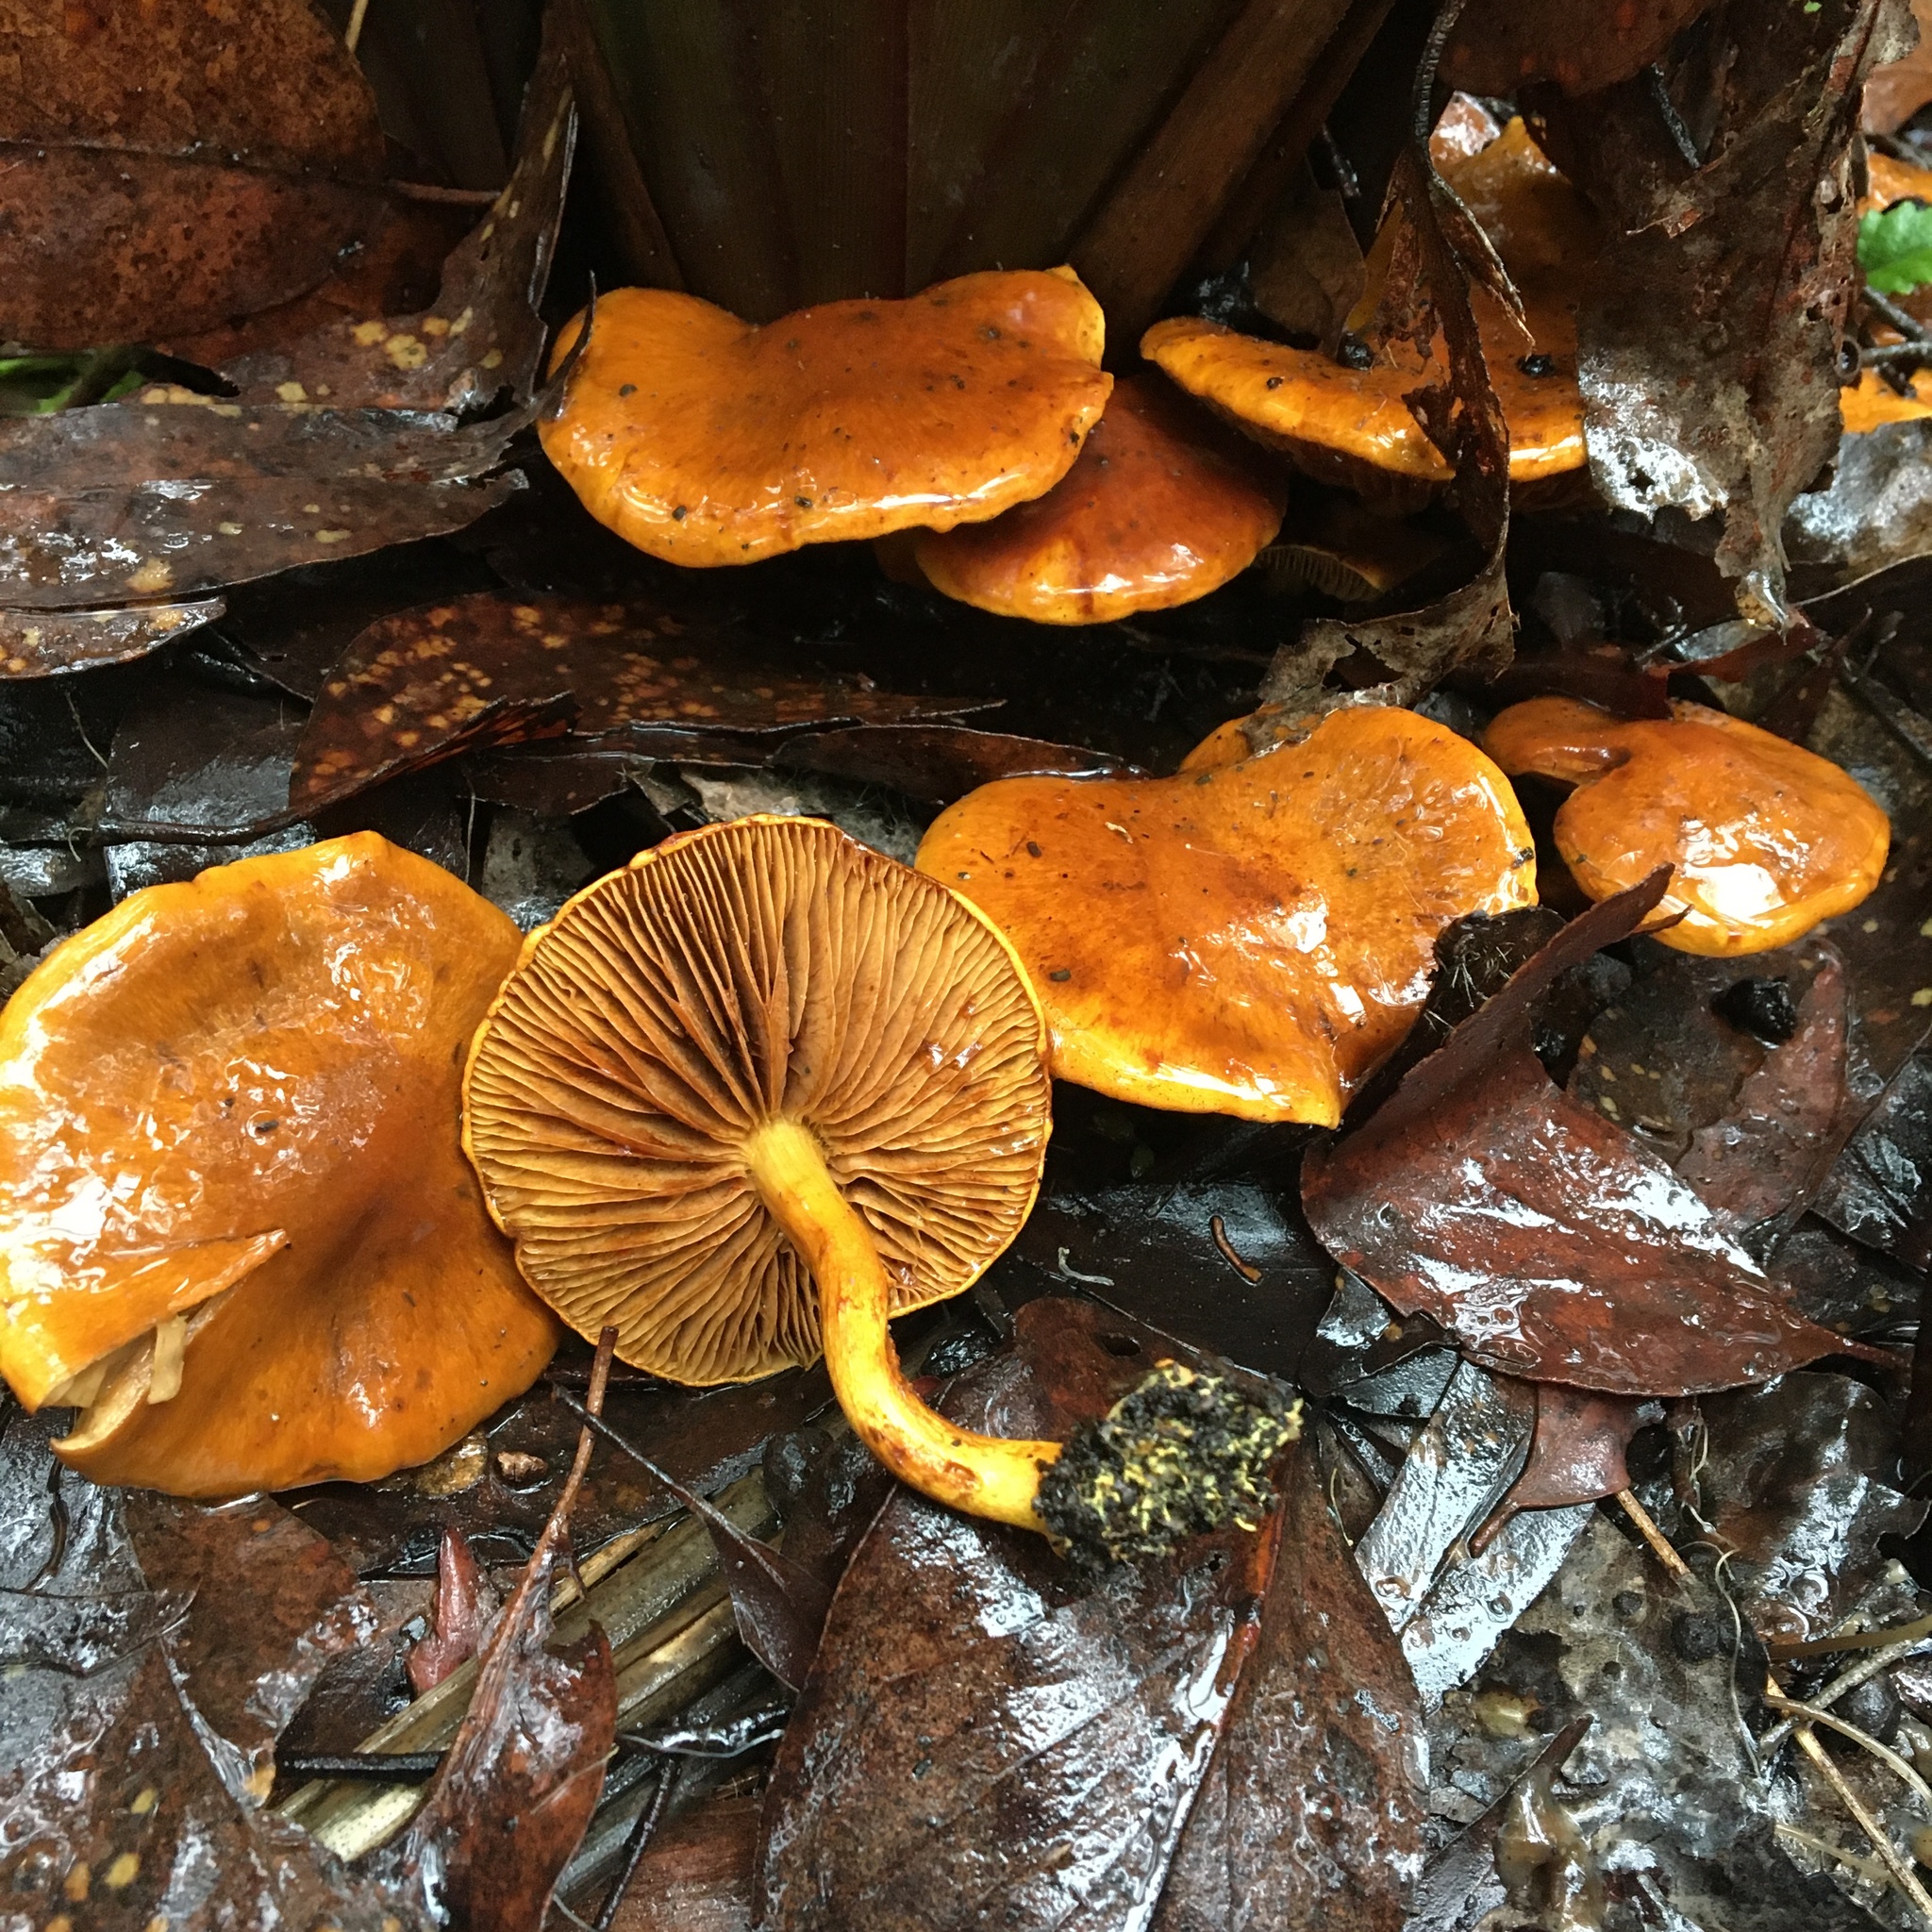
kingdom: Fungi
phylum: Basidiomycota
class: Agaricomycetes
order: Agaricales
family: Cortinariaceae
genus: Cortinarius
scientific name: Cortinarius abnormis
